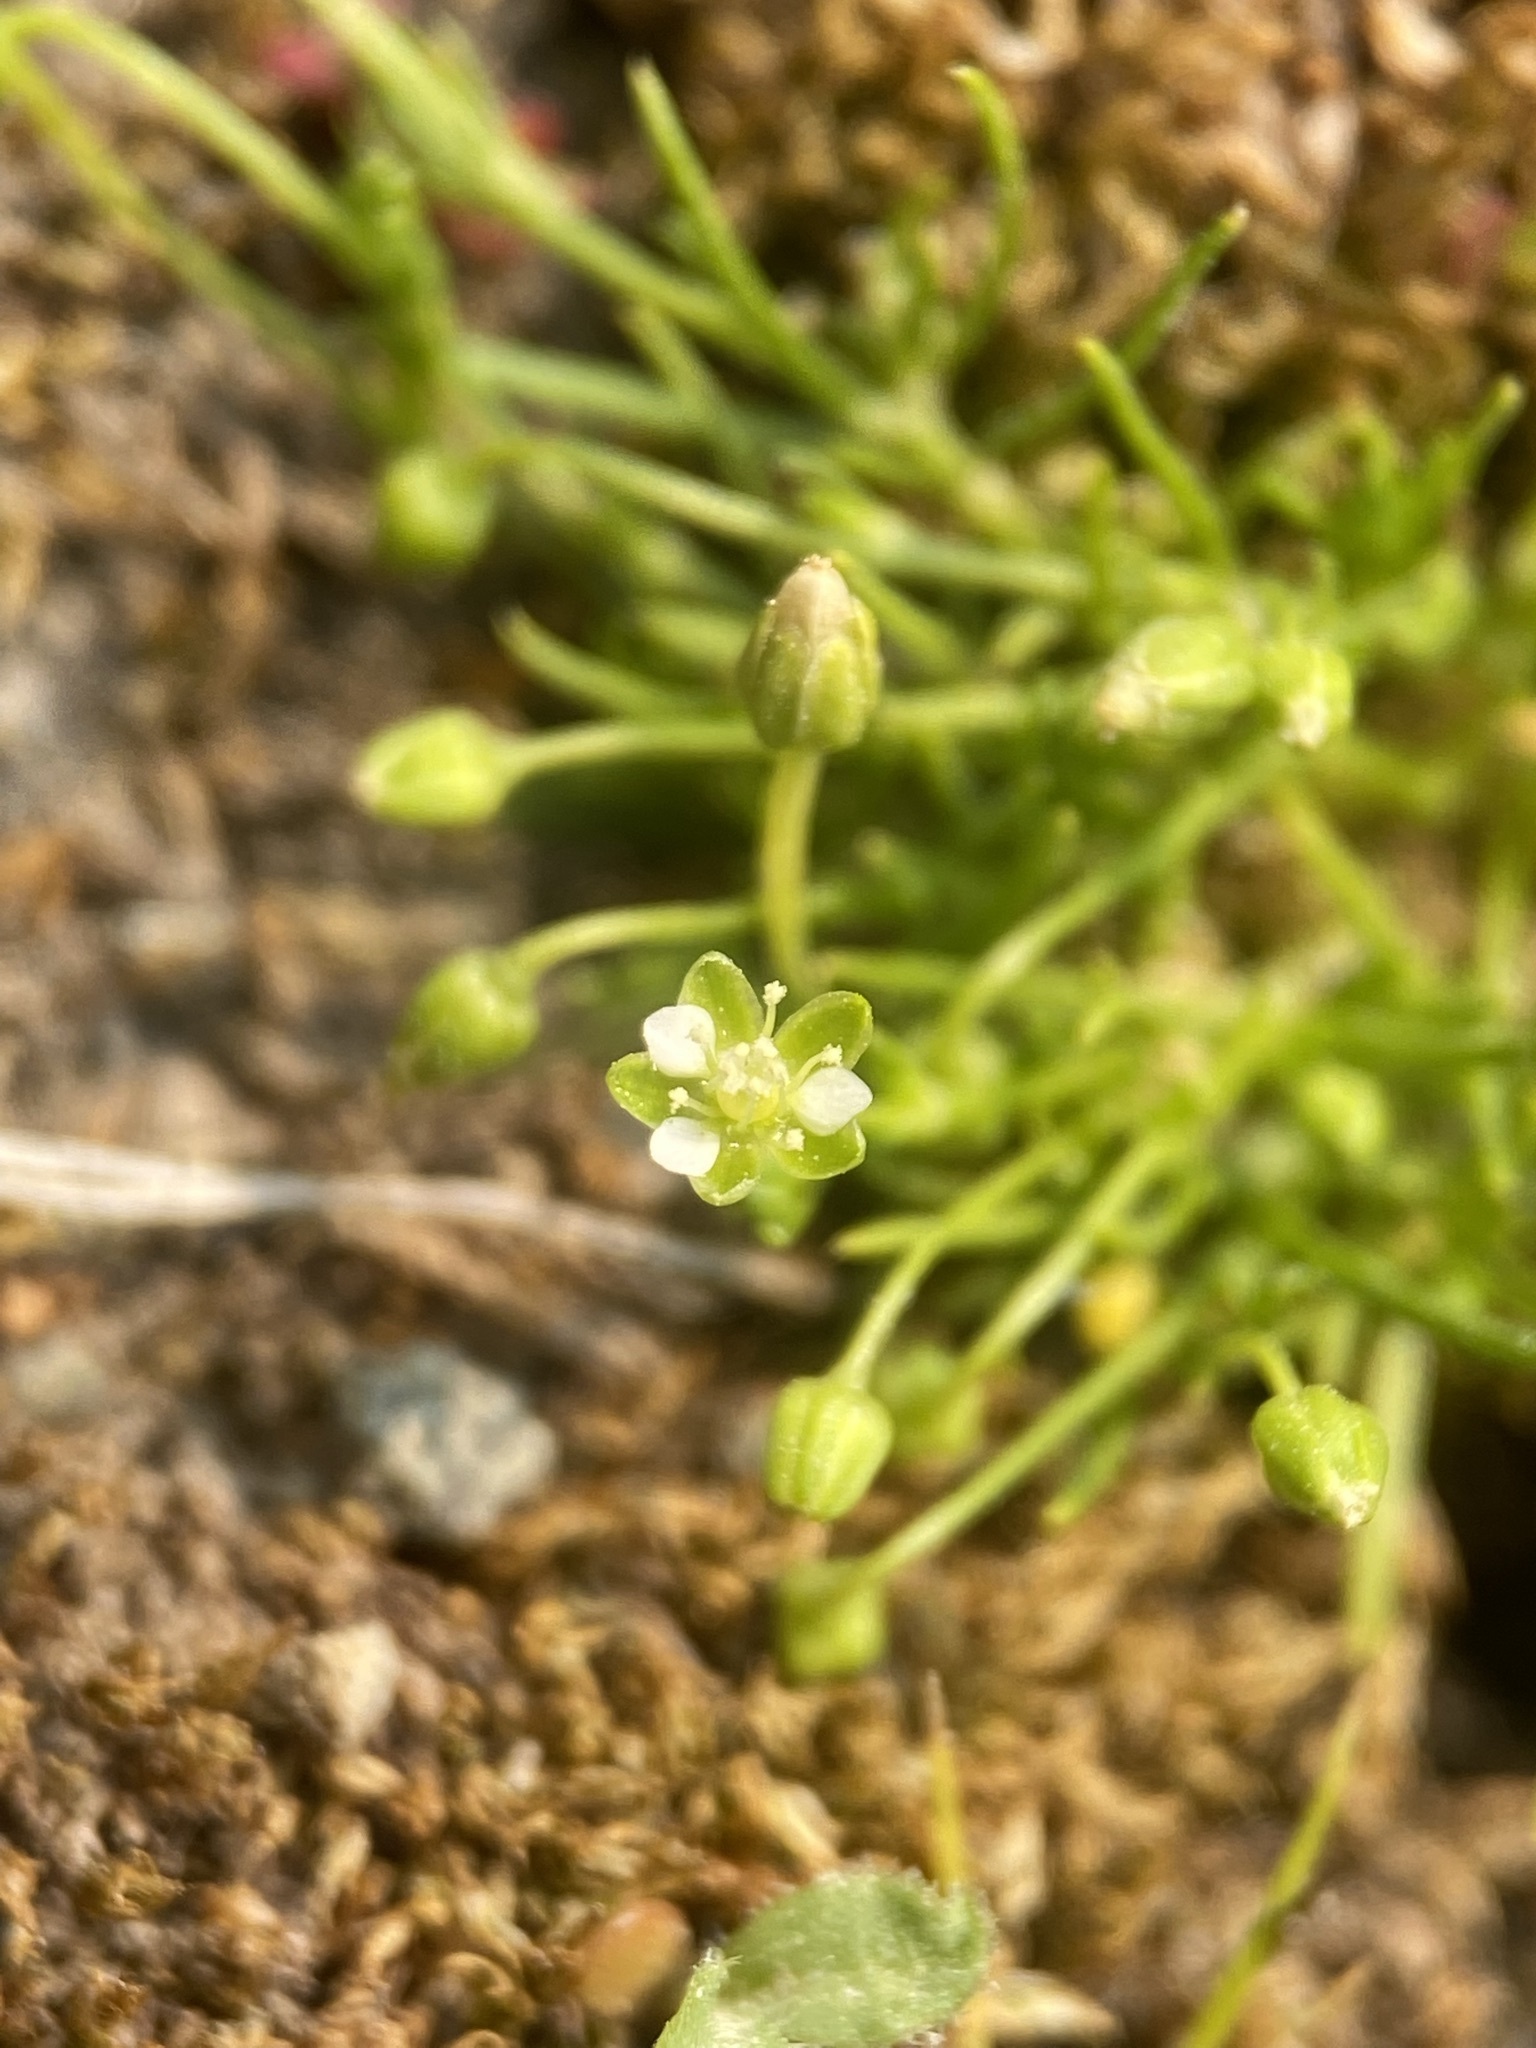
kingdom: Plantae
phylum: Tracheophyta
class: Magnoliopsida
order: Caryophyllales
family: Caryophyllaceae
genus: Sagina
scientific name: Sagina saginoides
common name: Alpine pearlwort
